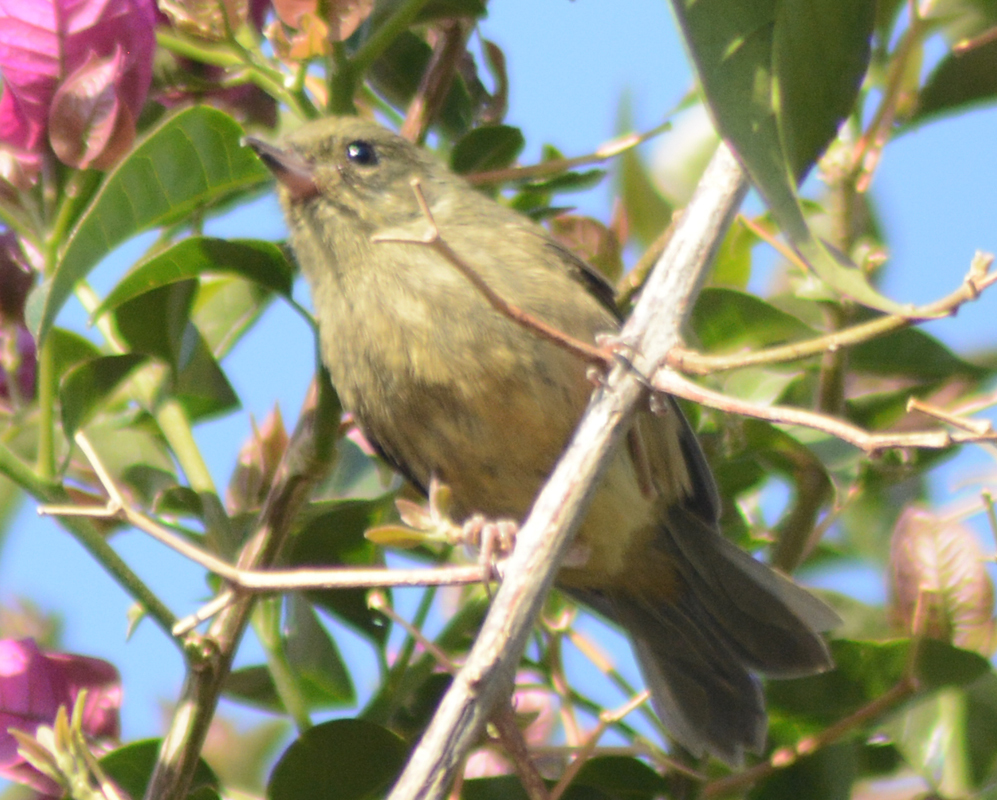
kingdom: Animalia
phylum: Chordata
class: Aves
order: Passeriformes
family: Thraupidae
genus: Diglossa
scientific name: Diglossa baritula
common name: Cinnamon-bellied flowerpiercer
